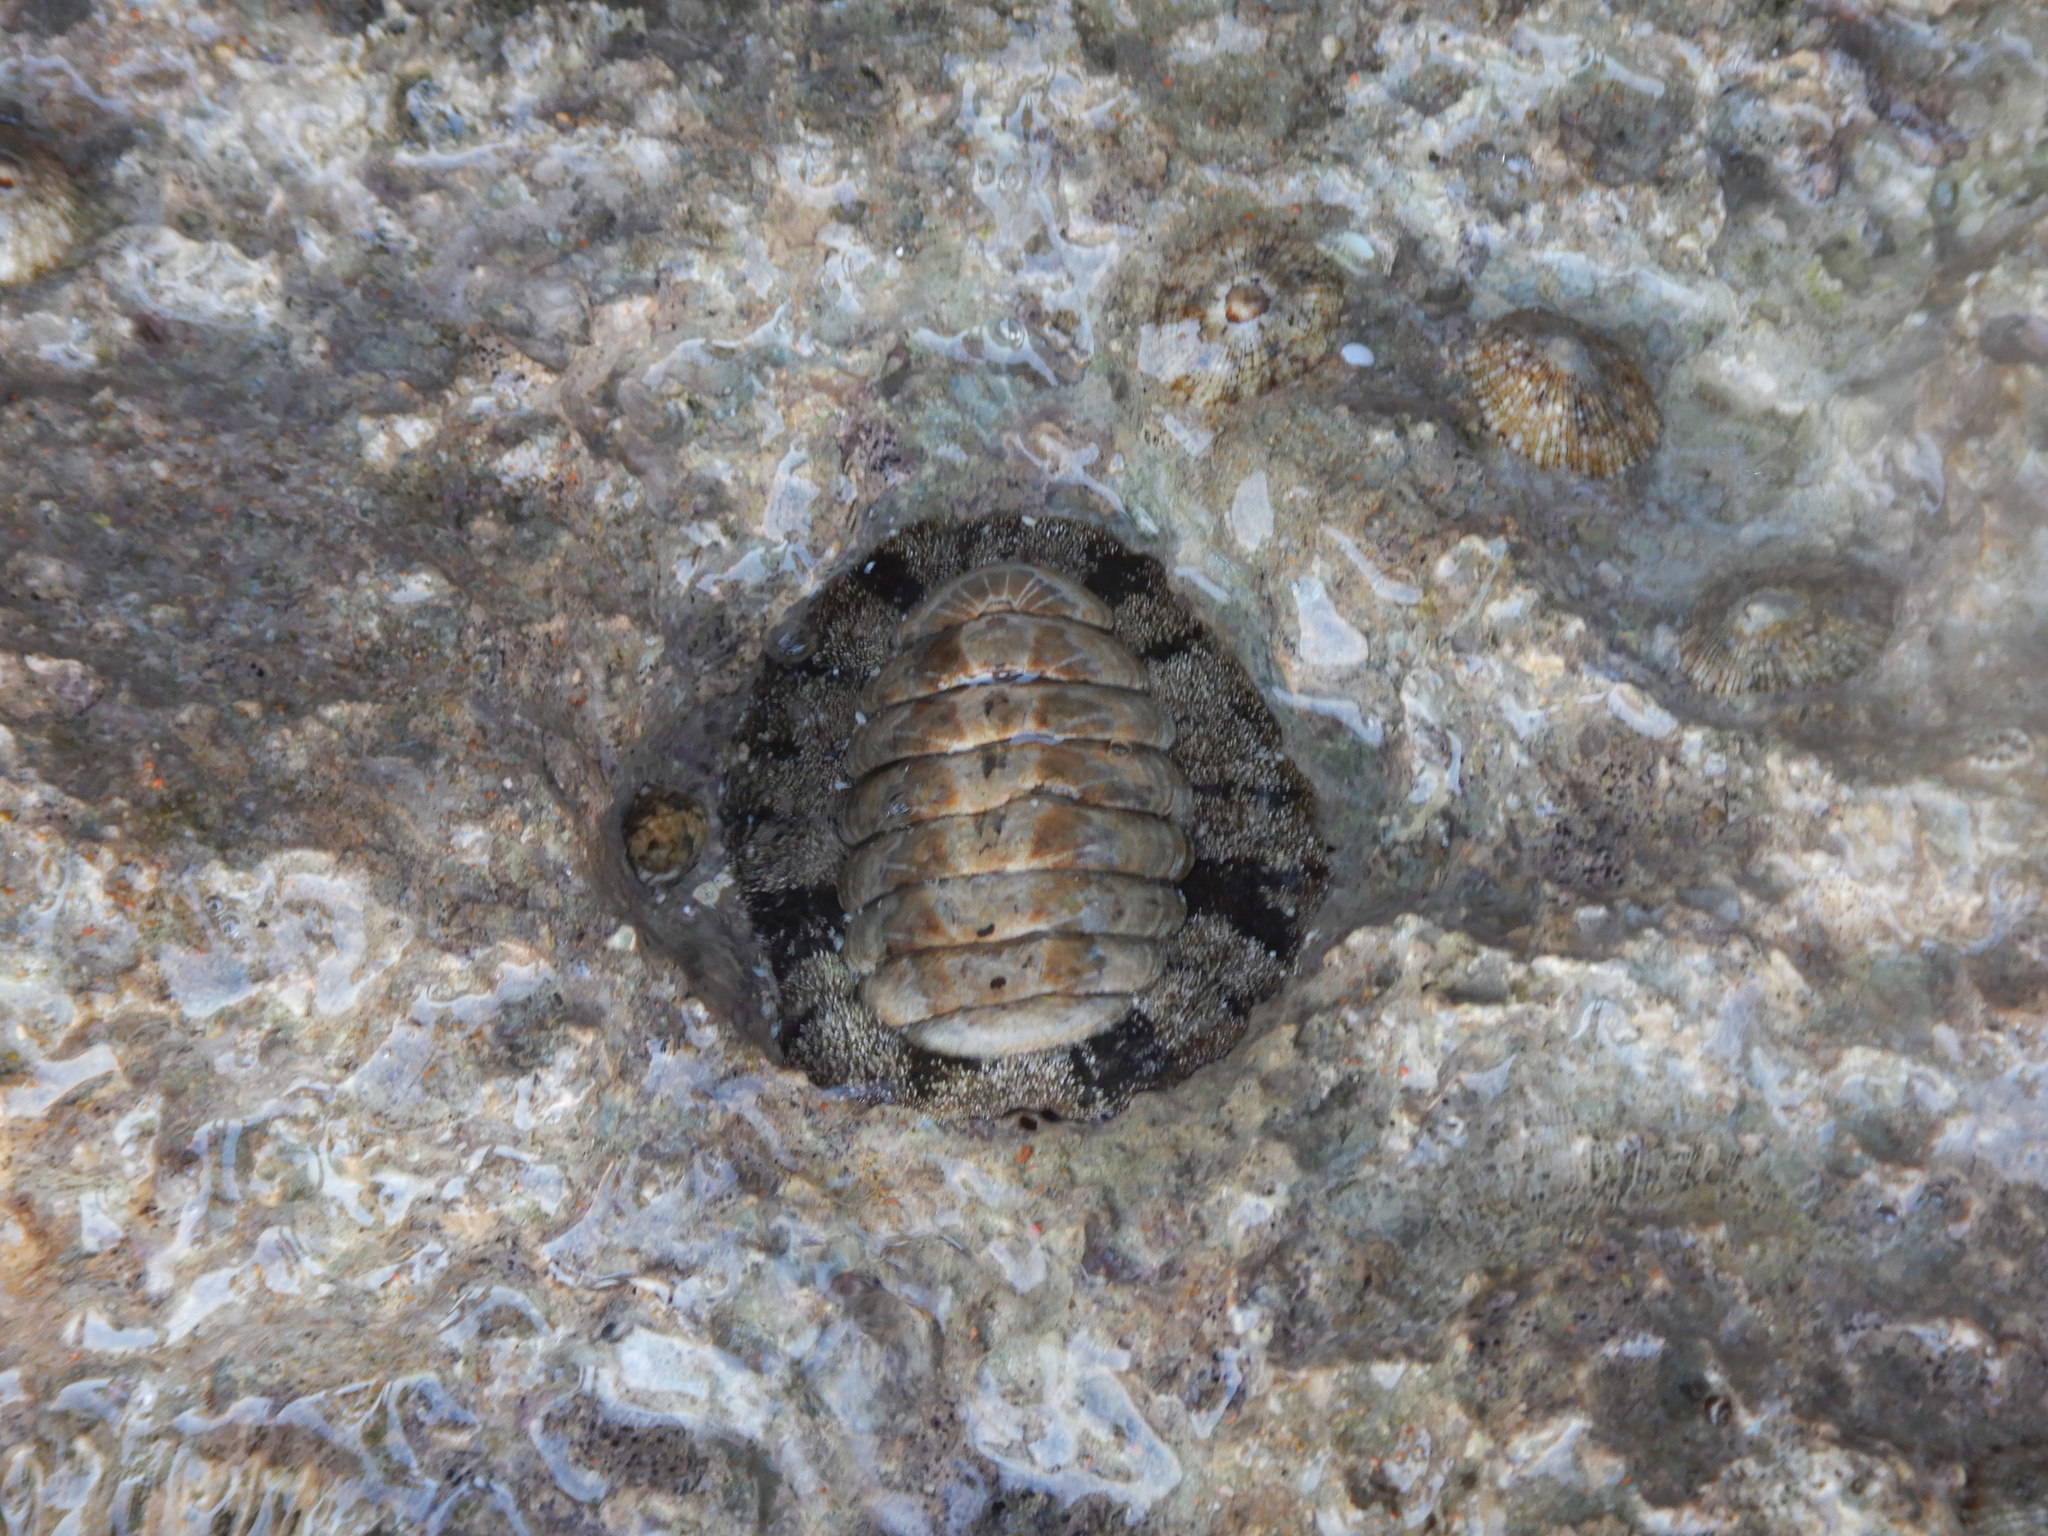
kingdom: Animalia
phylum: Mollusca
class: Polyplacophora
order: Chitonida
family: Chitonidae
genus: Acanthopleura
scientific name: Acanthopleura vaillantii
